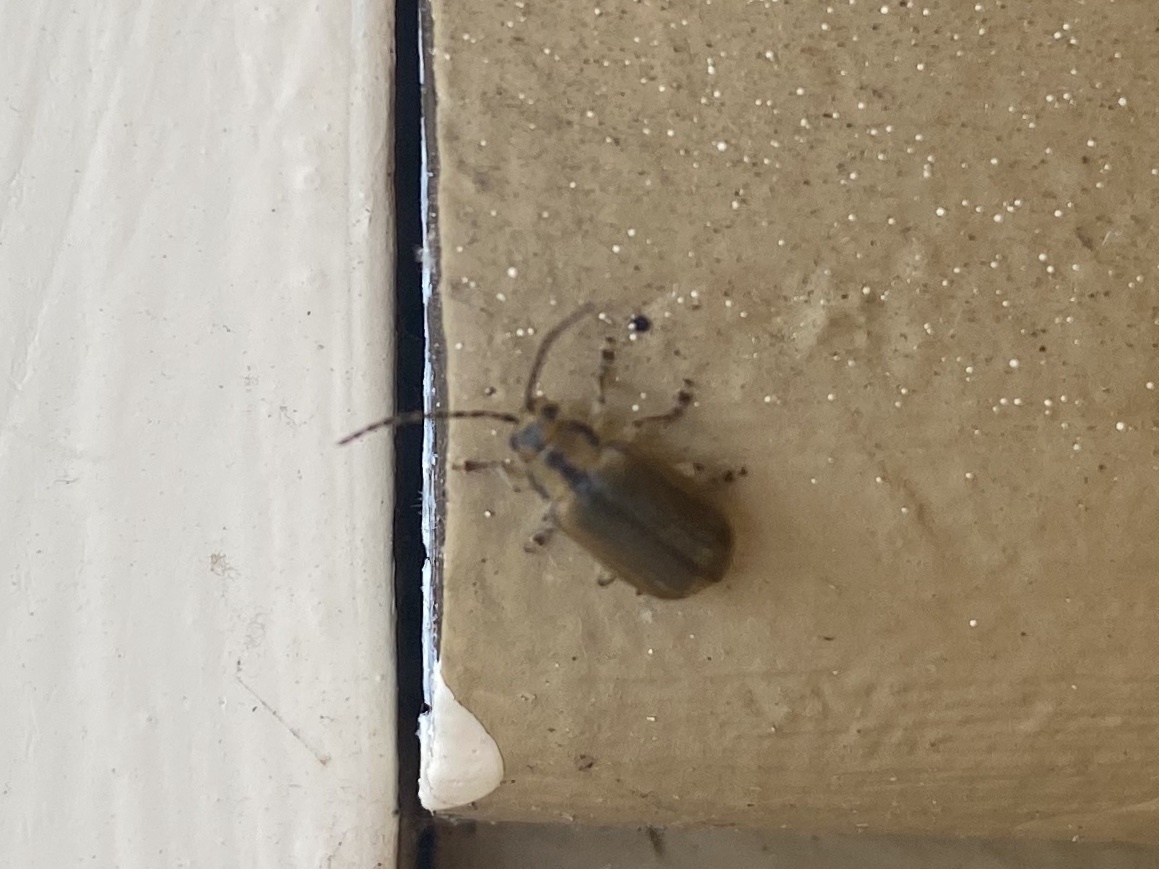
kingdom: Animalia
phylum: Arthropoda
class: Insecta
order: Coleoptera
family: Chrysomelidae
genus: Pyrrhalta
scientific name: Pyrrhalta viburni
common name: Guelder-rose leaf beetle
